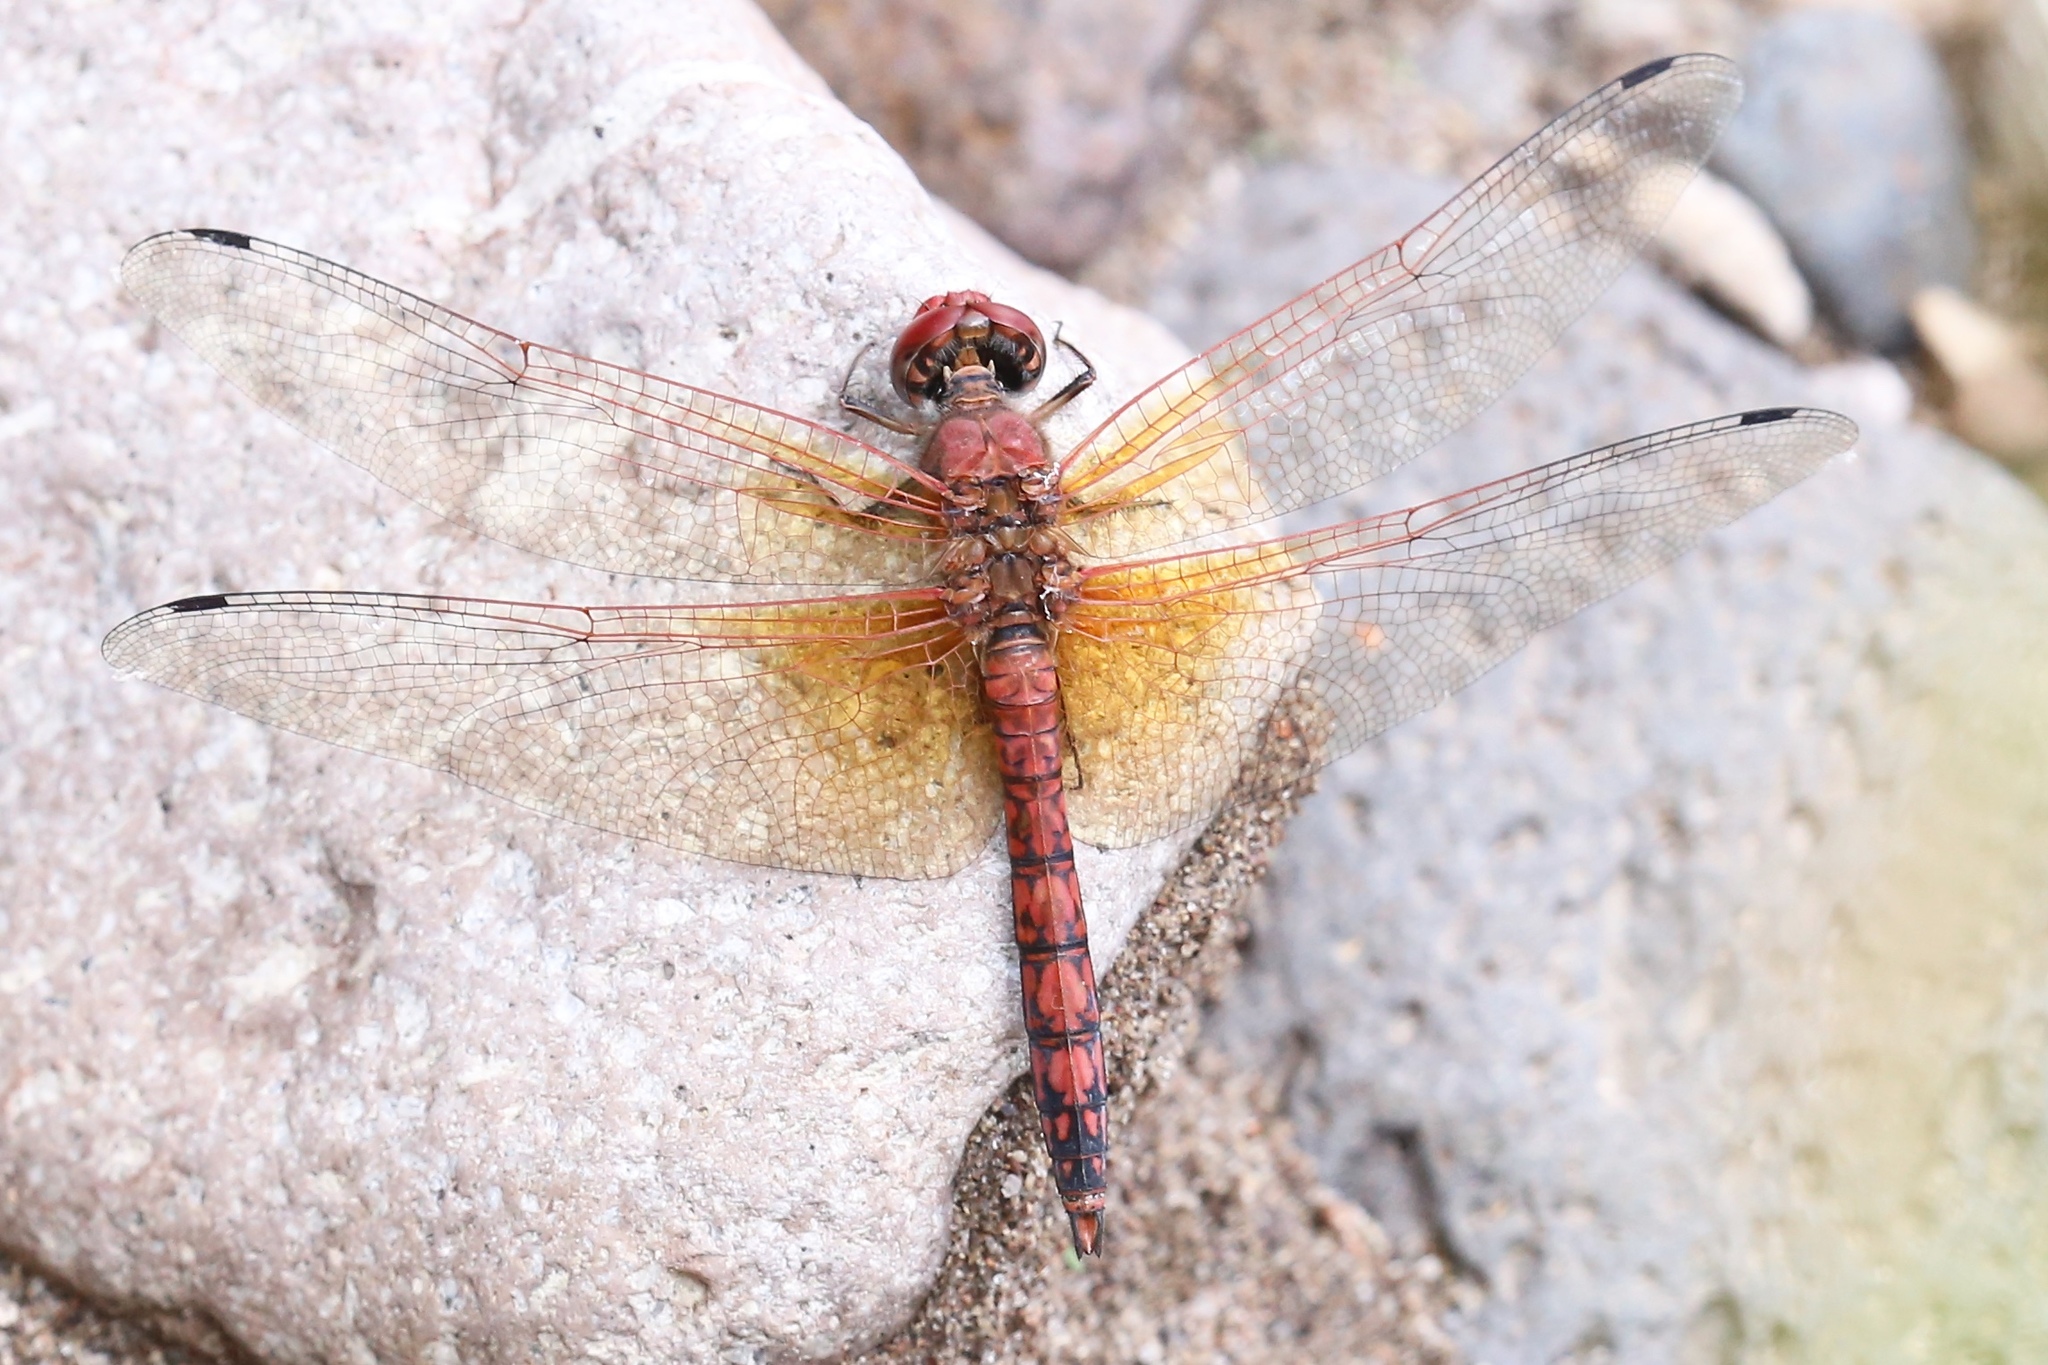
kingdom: Animalia
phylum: Arthropoda
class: Insecta
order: Odonata
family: Libellulidae
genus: Paltothemis
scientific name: Paltothemis lineatipes
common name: Red rock skimmer
